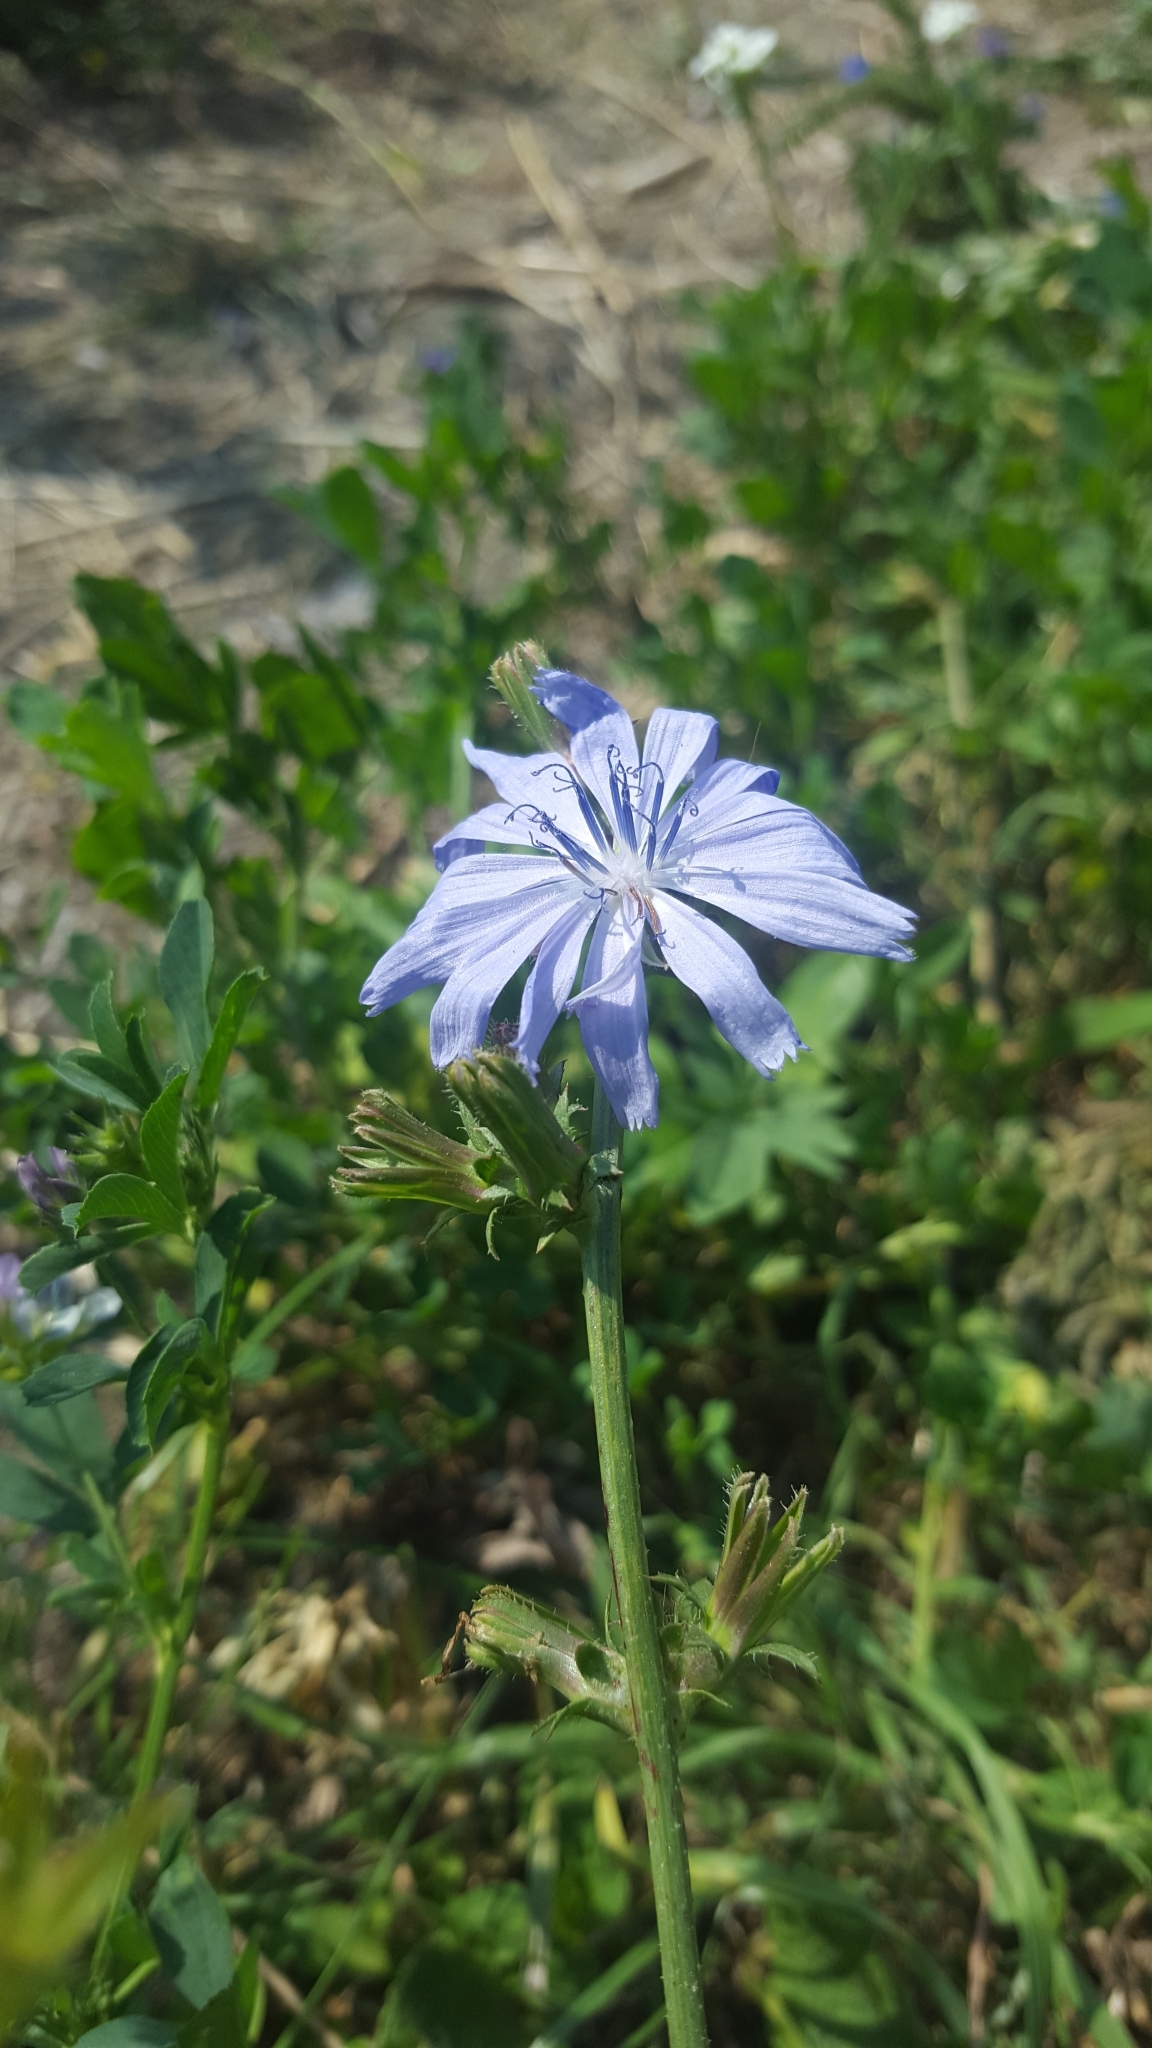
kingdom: Plantae
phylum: Tracheophyta
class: Magnoliopsida
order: Asterales
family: Asteraceae
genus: Cichorium
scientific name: Cichorium intybus
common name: Chicory
